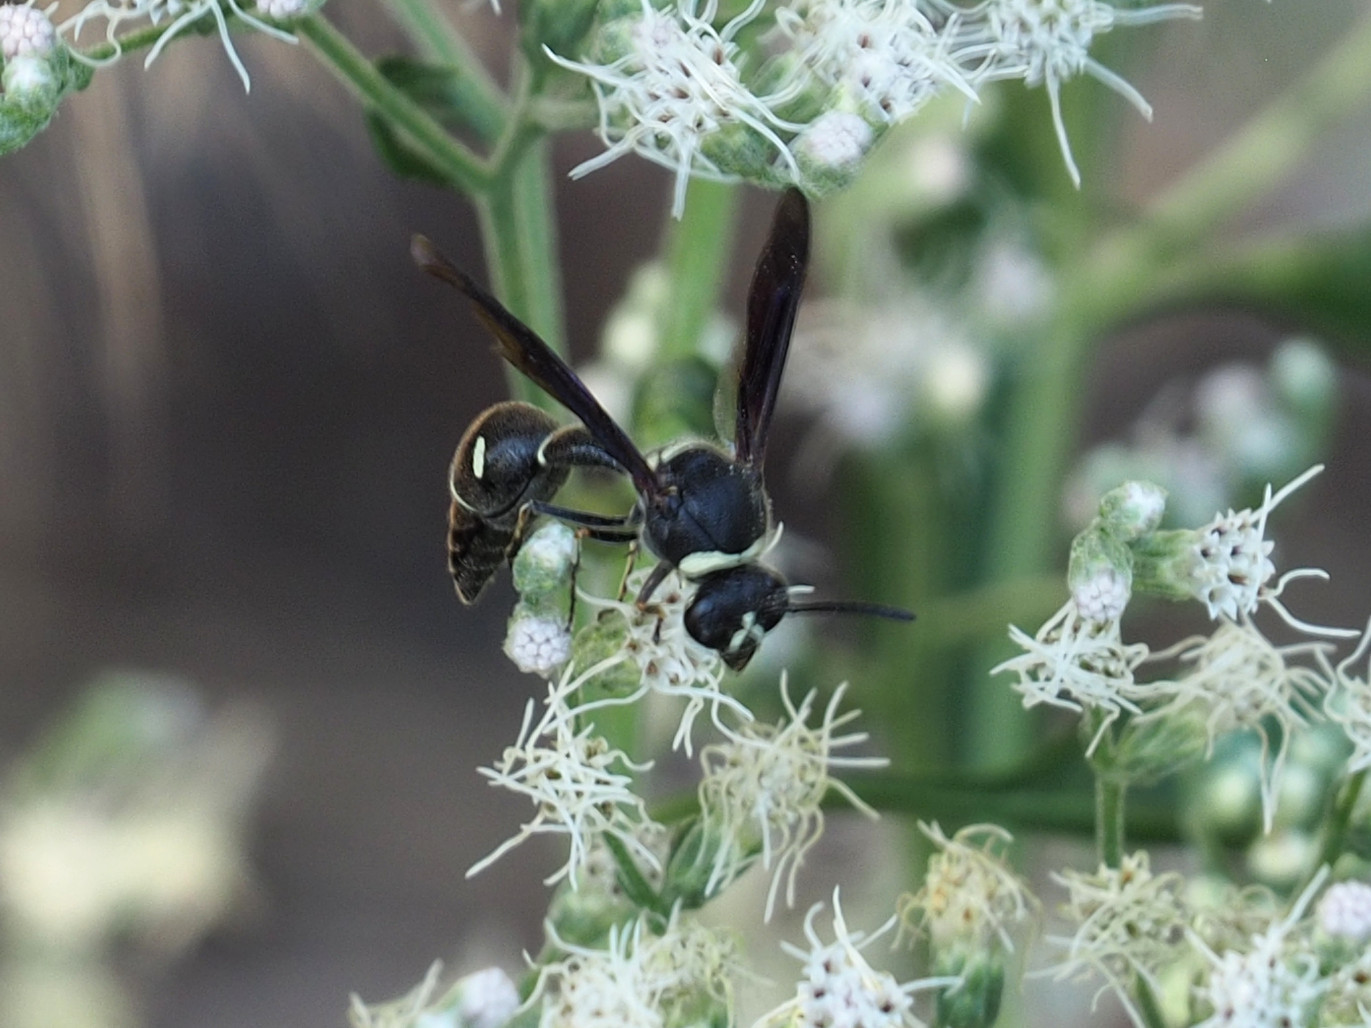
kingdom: Animalia
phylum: Arthropoda
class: Insecta
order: Hymenoptera
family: Vespidae
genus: Eumenes
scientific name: Eumenes fraternus
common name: Fraternal potter wasp
